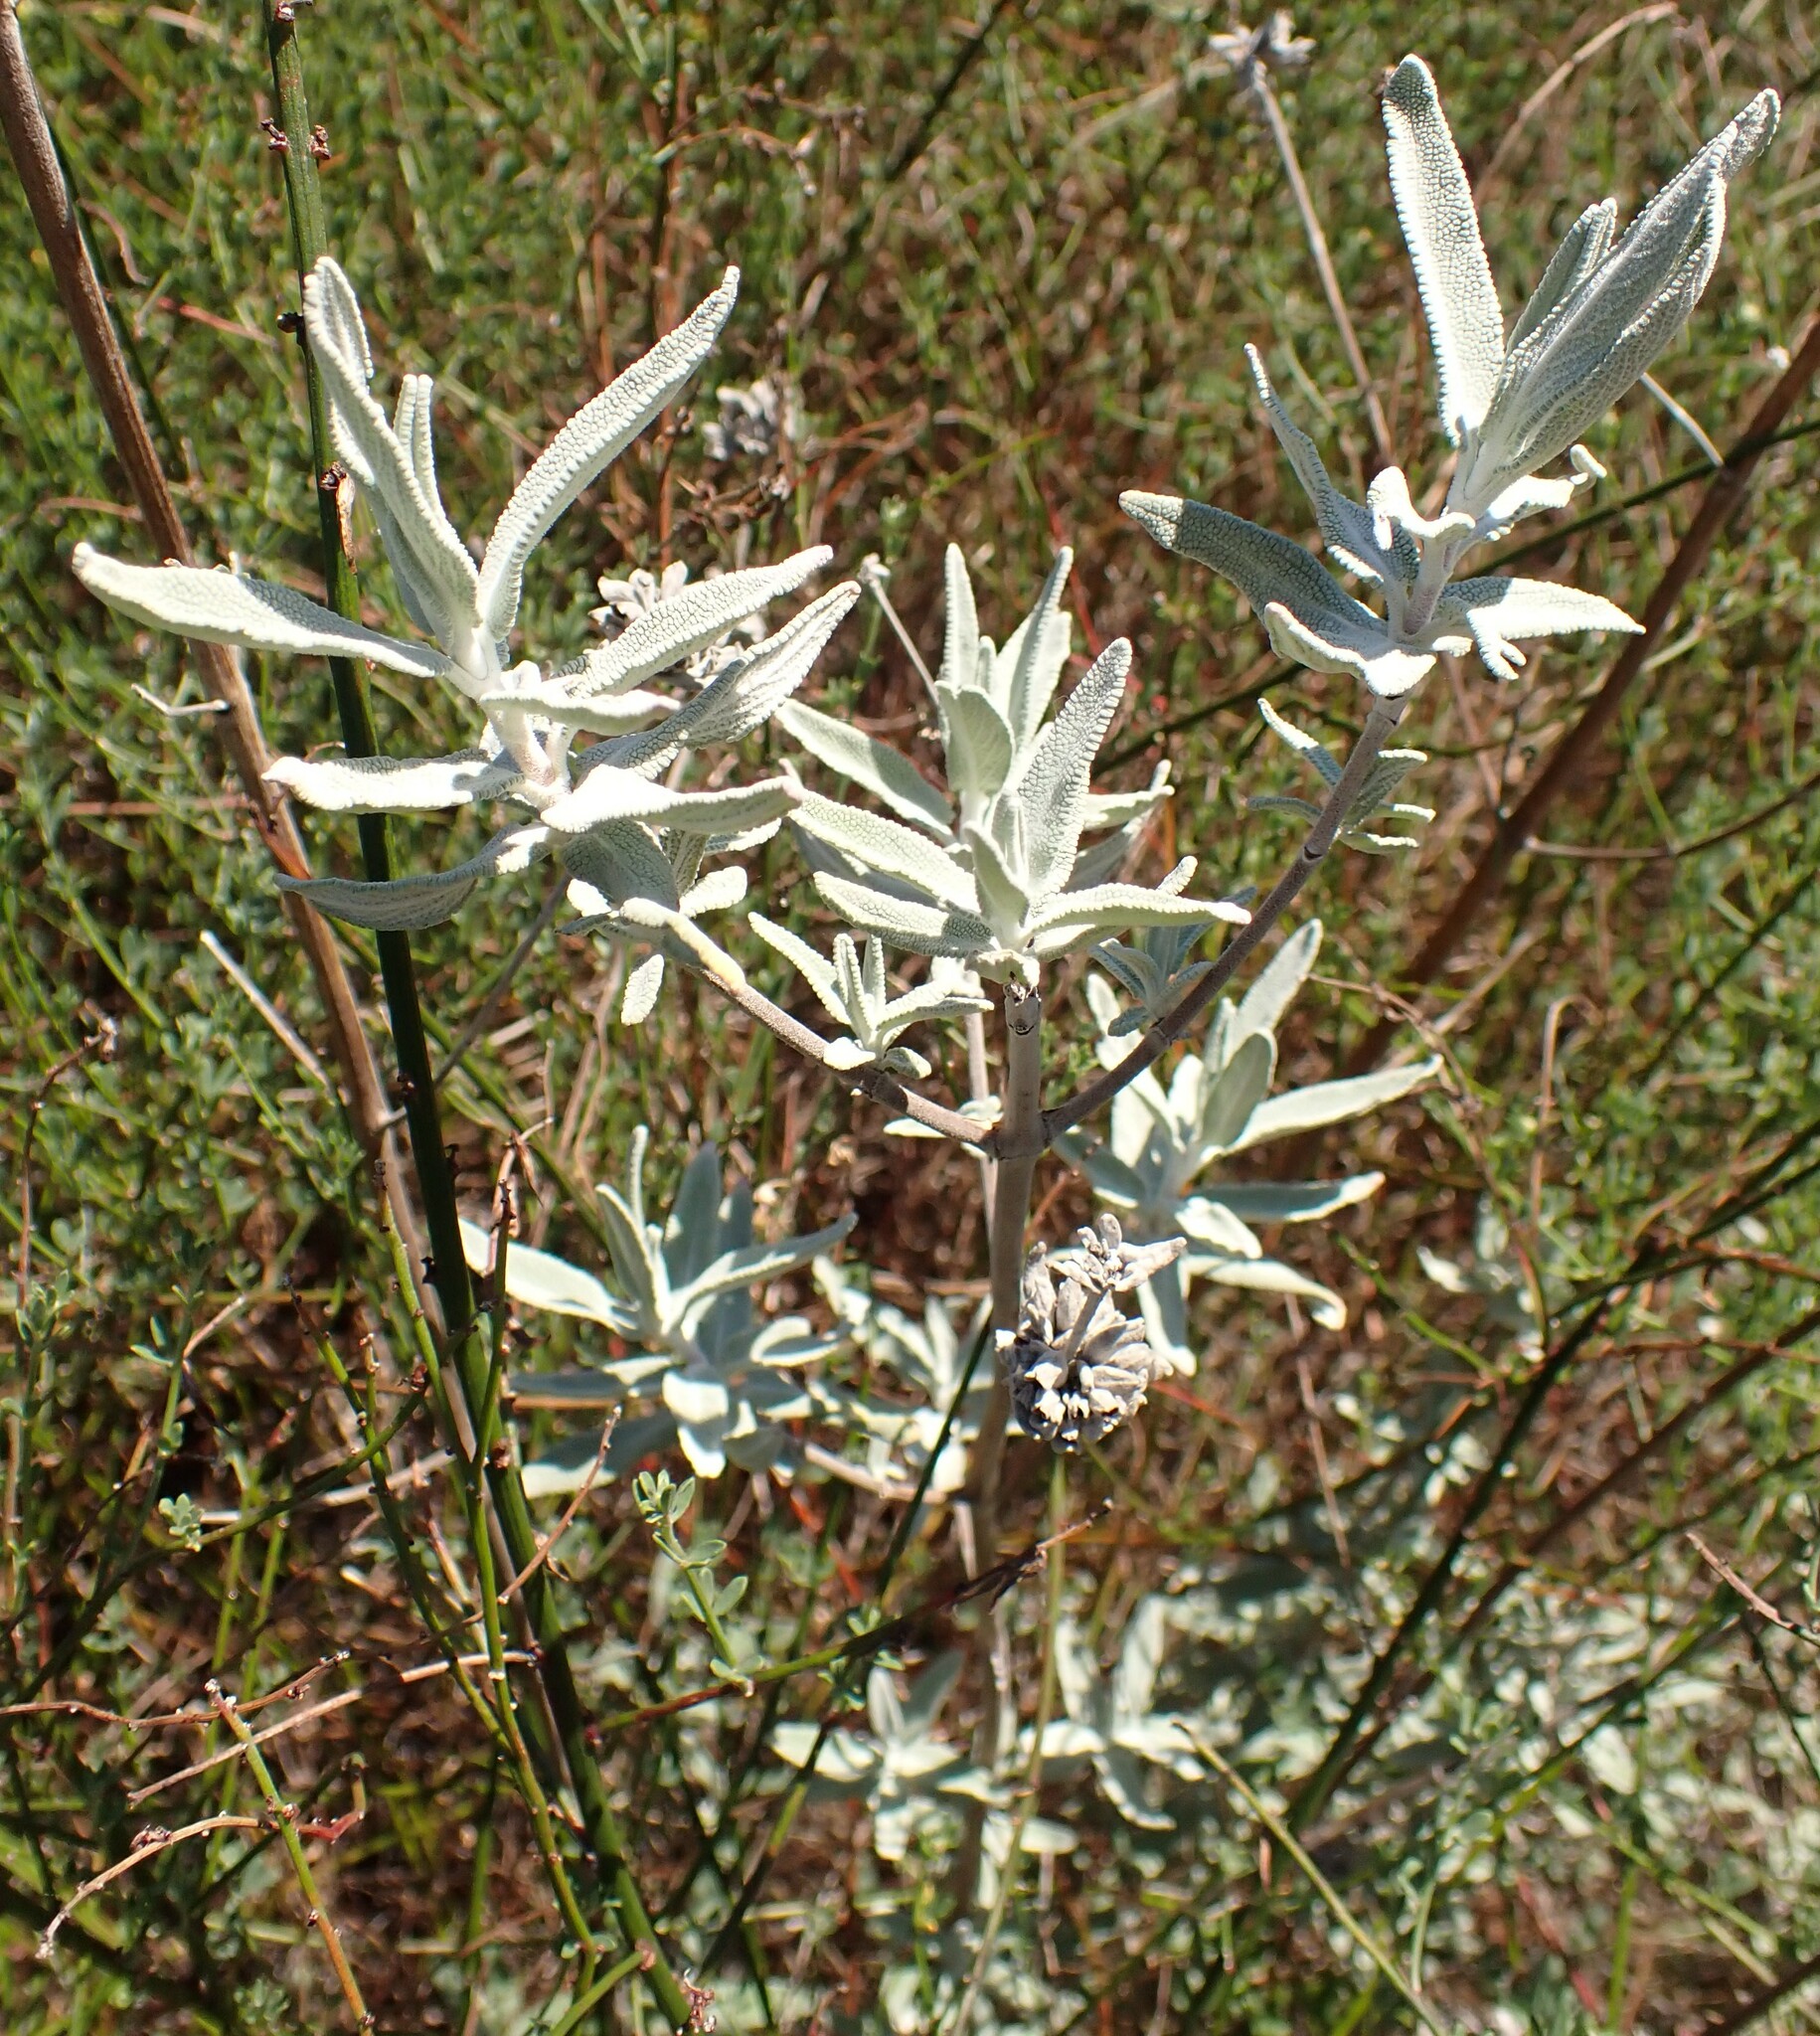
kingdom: Plantae
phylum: Tracheophyta
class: Magnoliopsida
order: Lamiales
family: Lamiaceae
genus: Salvia
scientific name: Salvia leucophylla
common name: Purple sage
